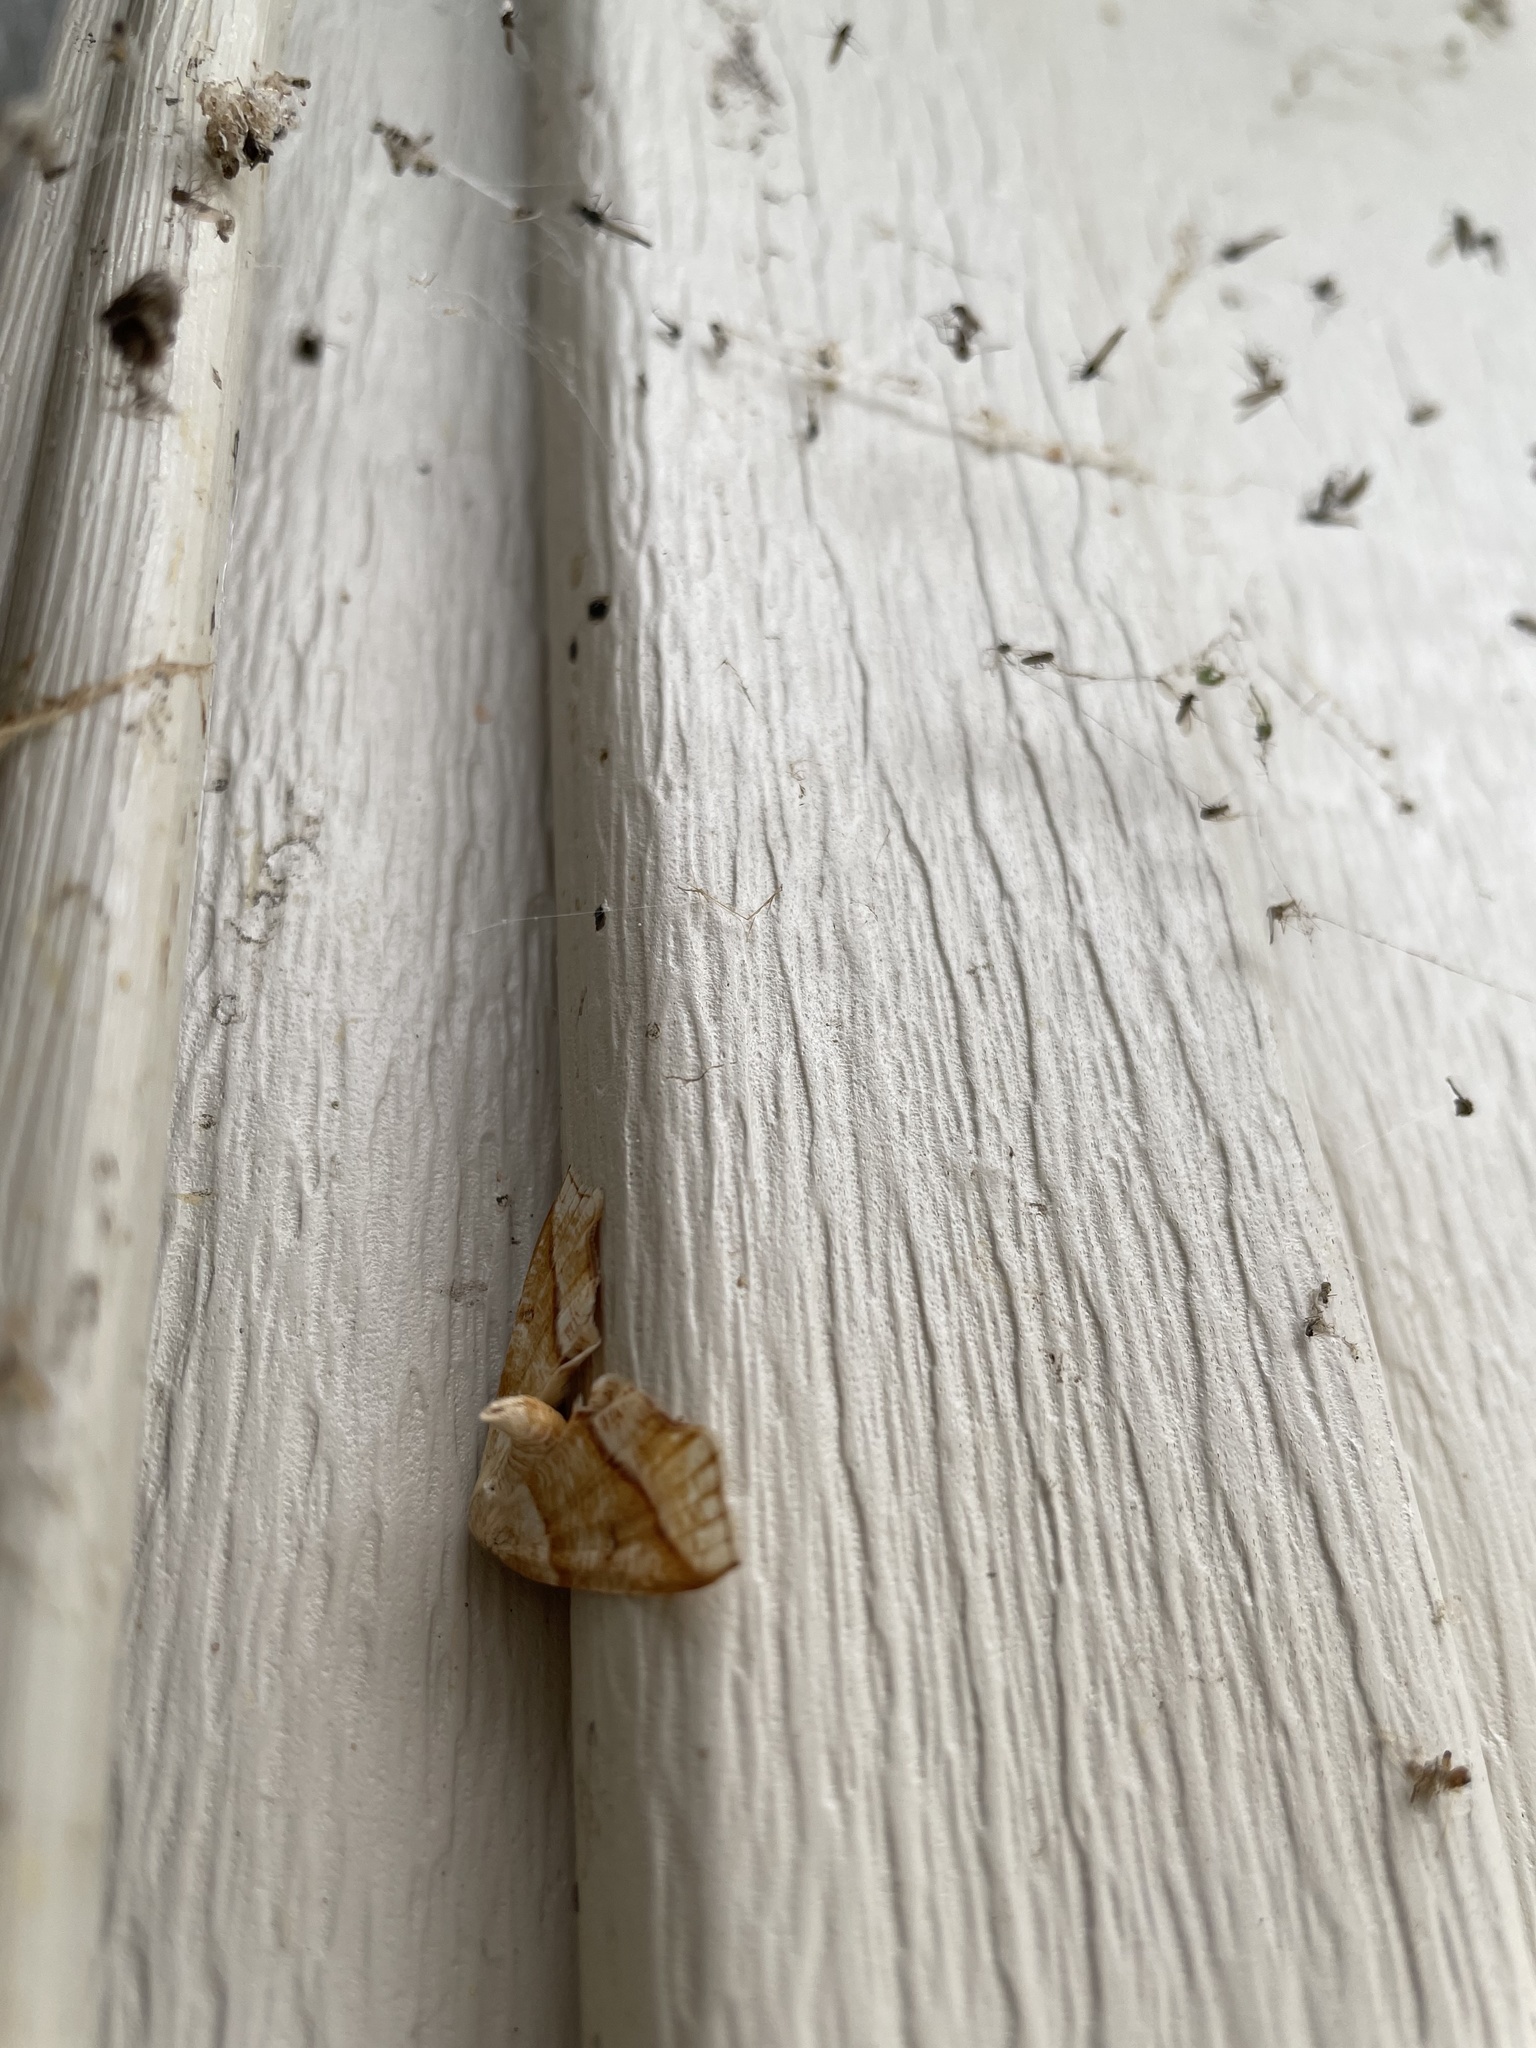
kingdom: Animalia
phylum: Arthropoda
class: Insecta
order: Lepidoptera
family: Geometridae
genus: Plagodis
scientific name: Plagodis alcoolaria
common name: Hollow-spotted plagodis
